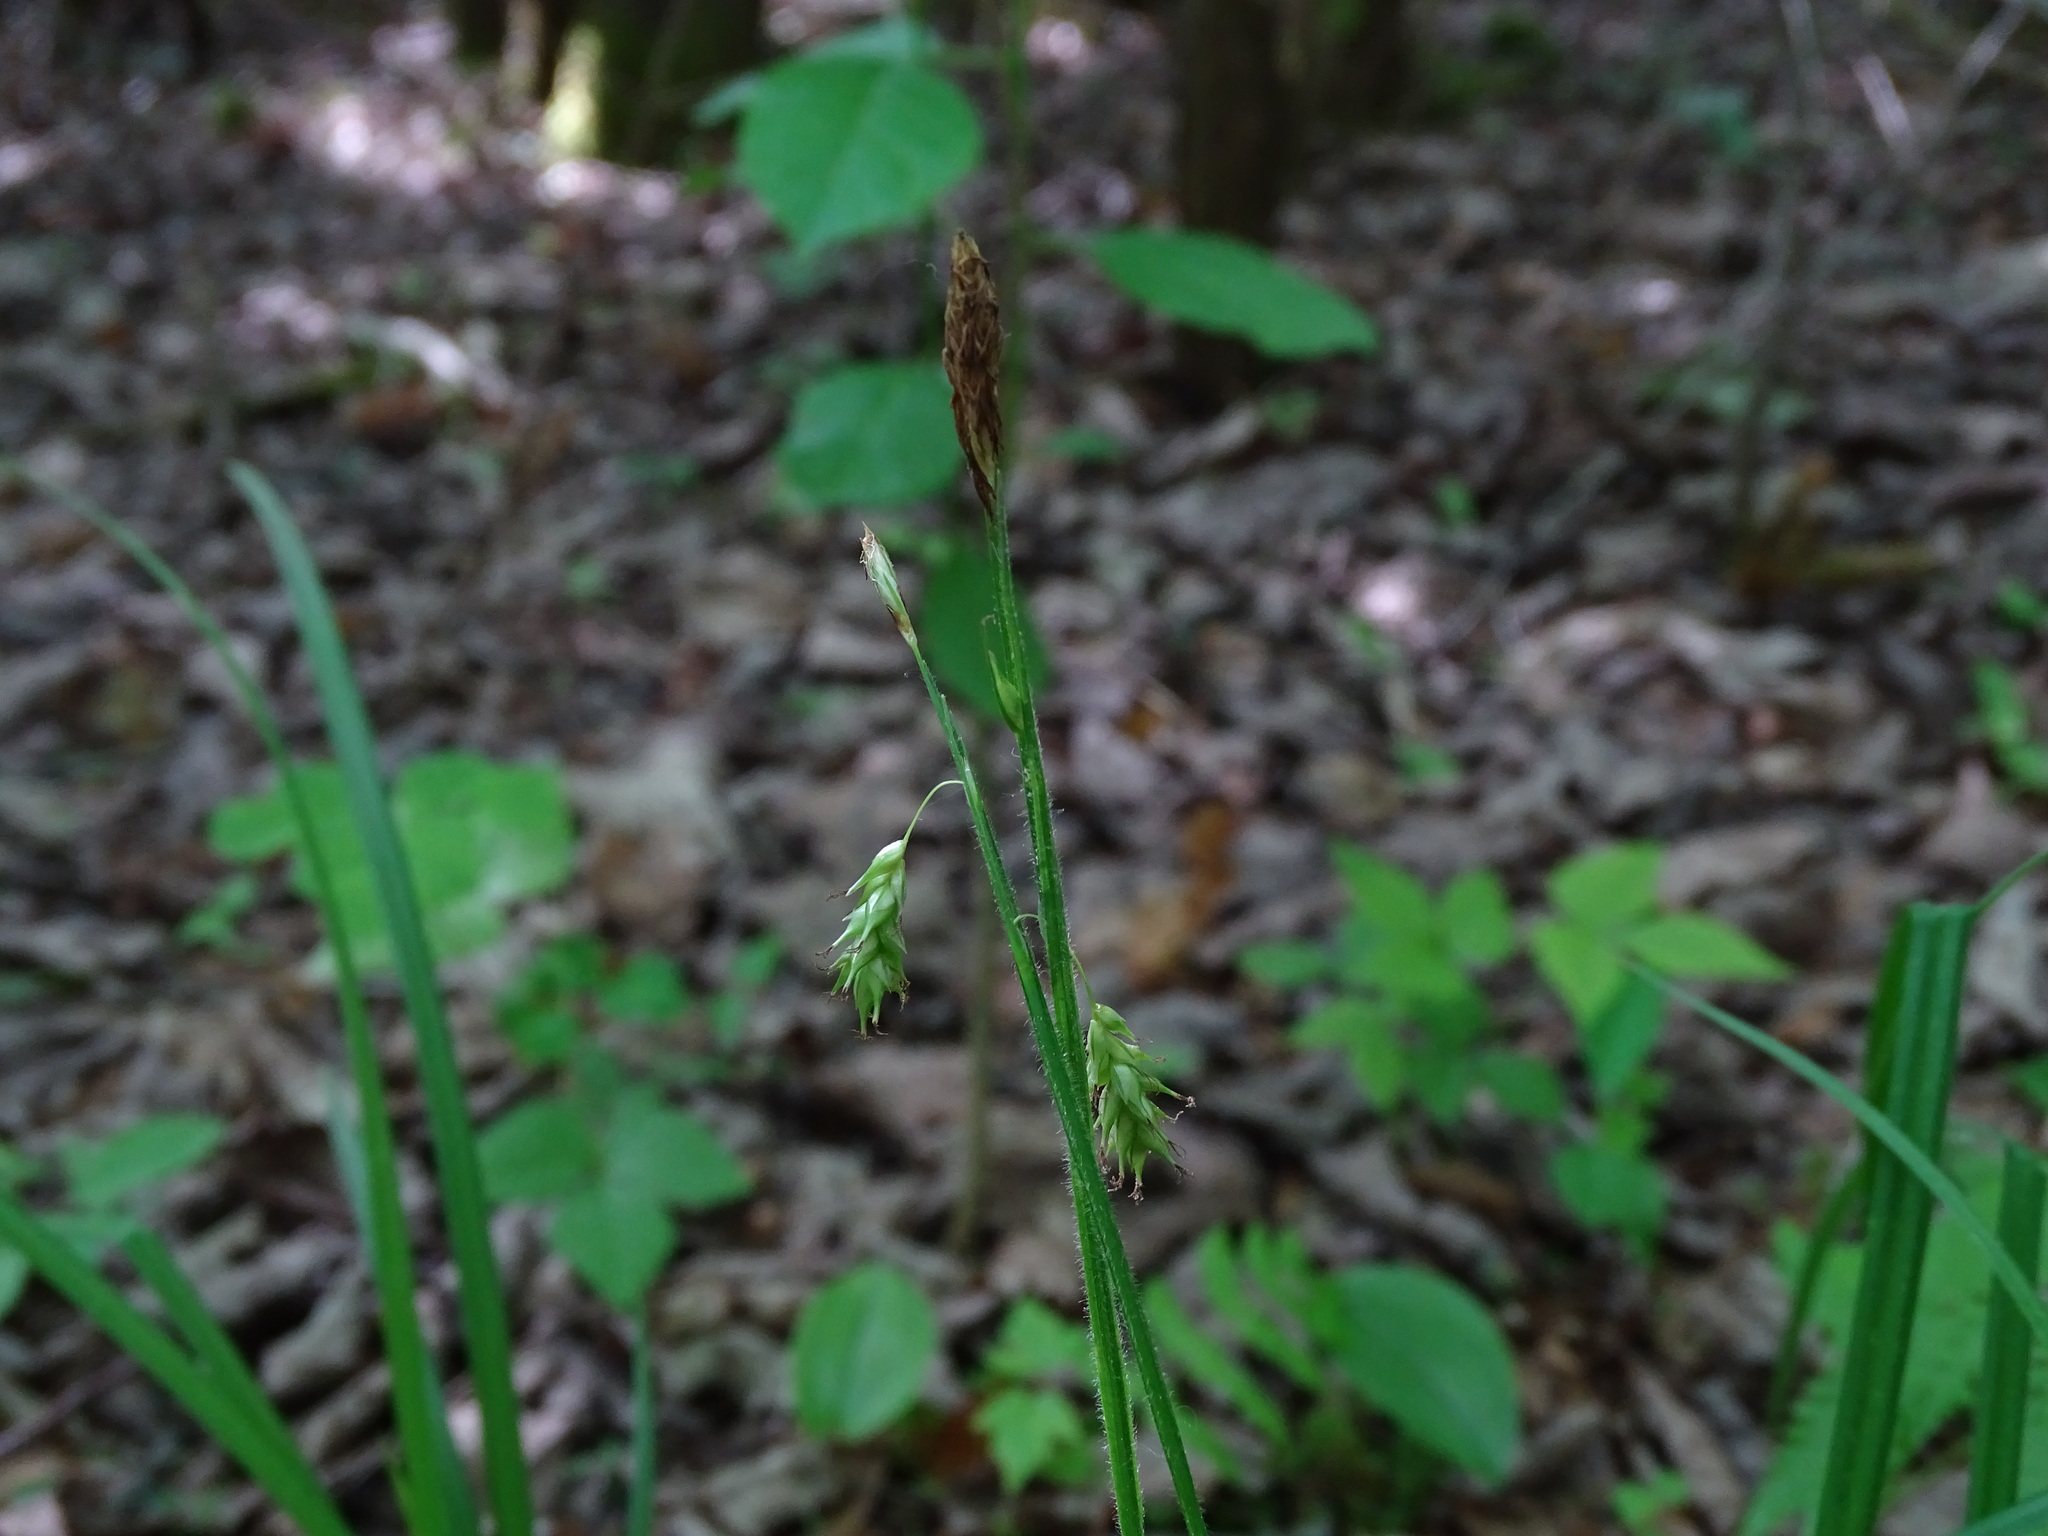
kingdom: Plantae
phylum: Tracheophyta
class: Liliopsida
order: Poales
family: Cyperaceae
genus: Carex
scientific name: Carex castanea
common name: Chestnut sedge
